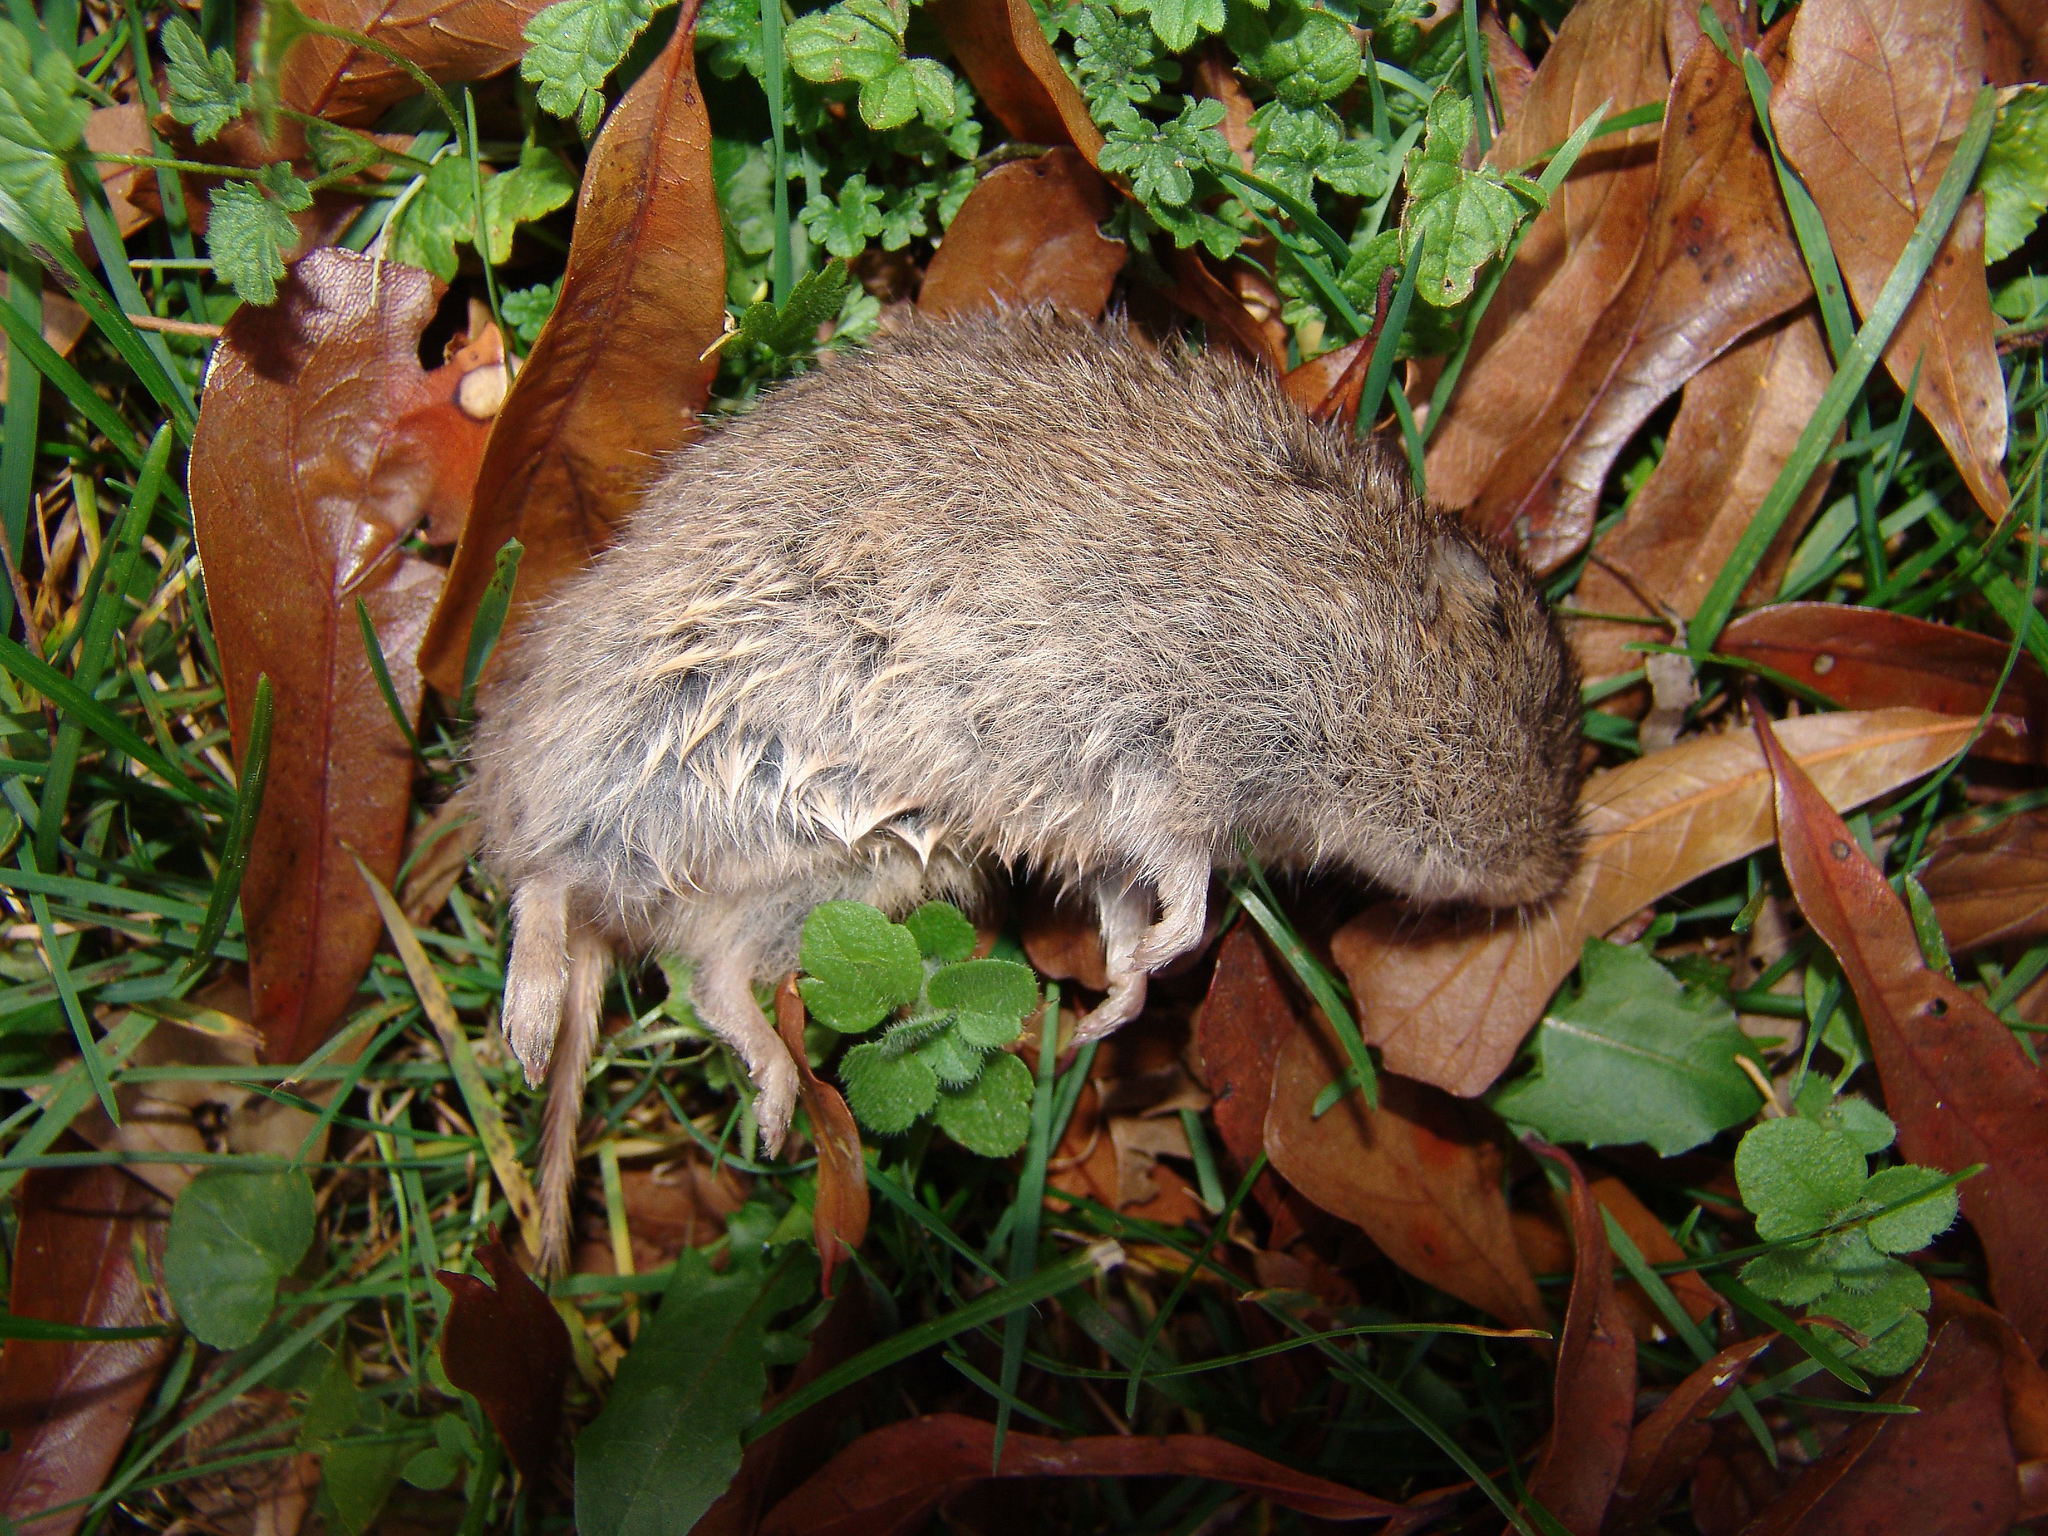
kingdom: Animalia
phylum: Chordata
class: Mammalia
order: Rodentia
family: Cricetidae
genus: Microtus
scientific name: Microtus ochrogaster
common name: Prairie vole
